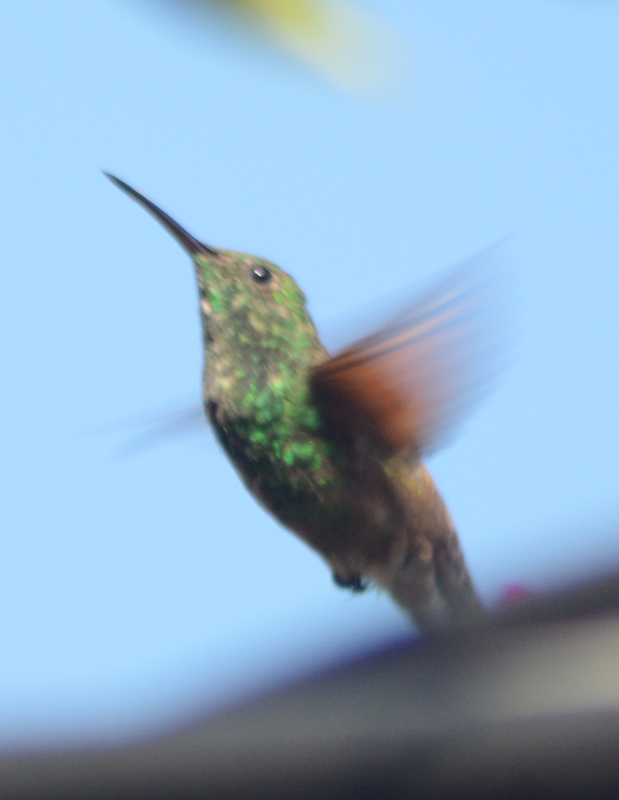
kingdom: Animalia
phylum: Chordata
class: Aves
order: Apodiformes
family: Trochilidae
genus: Saucerottia
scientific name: Saucerottia beryllina
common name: Berylline hummingbird
